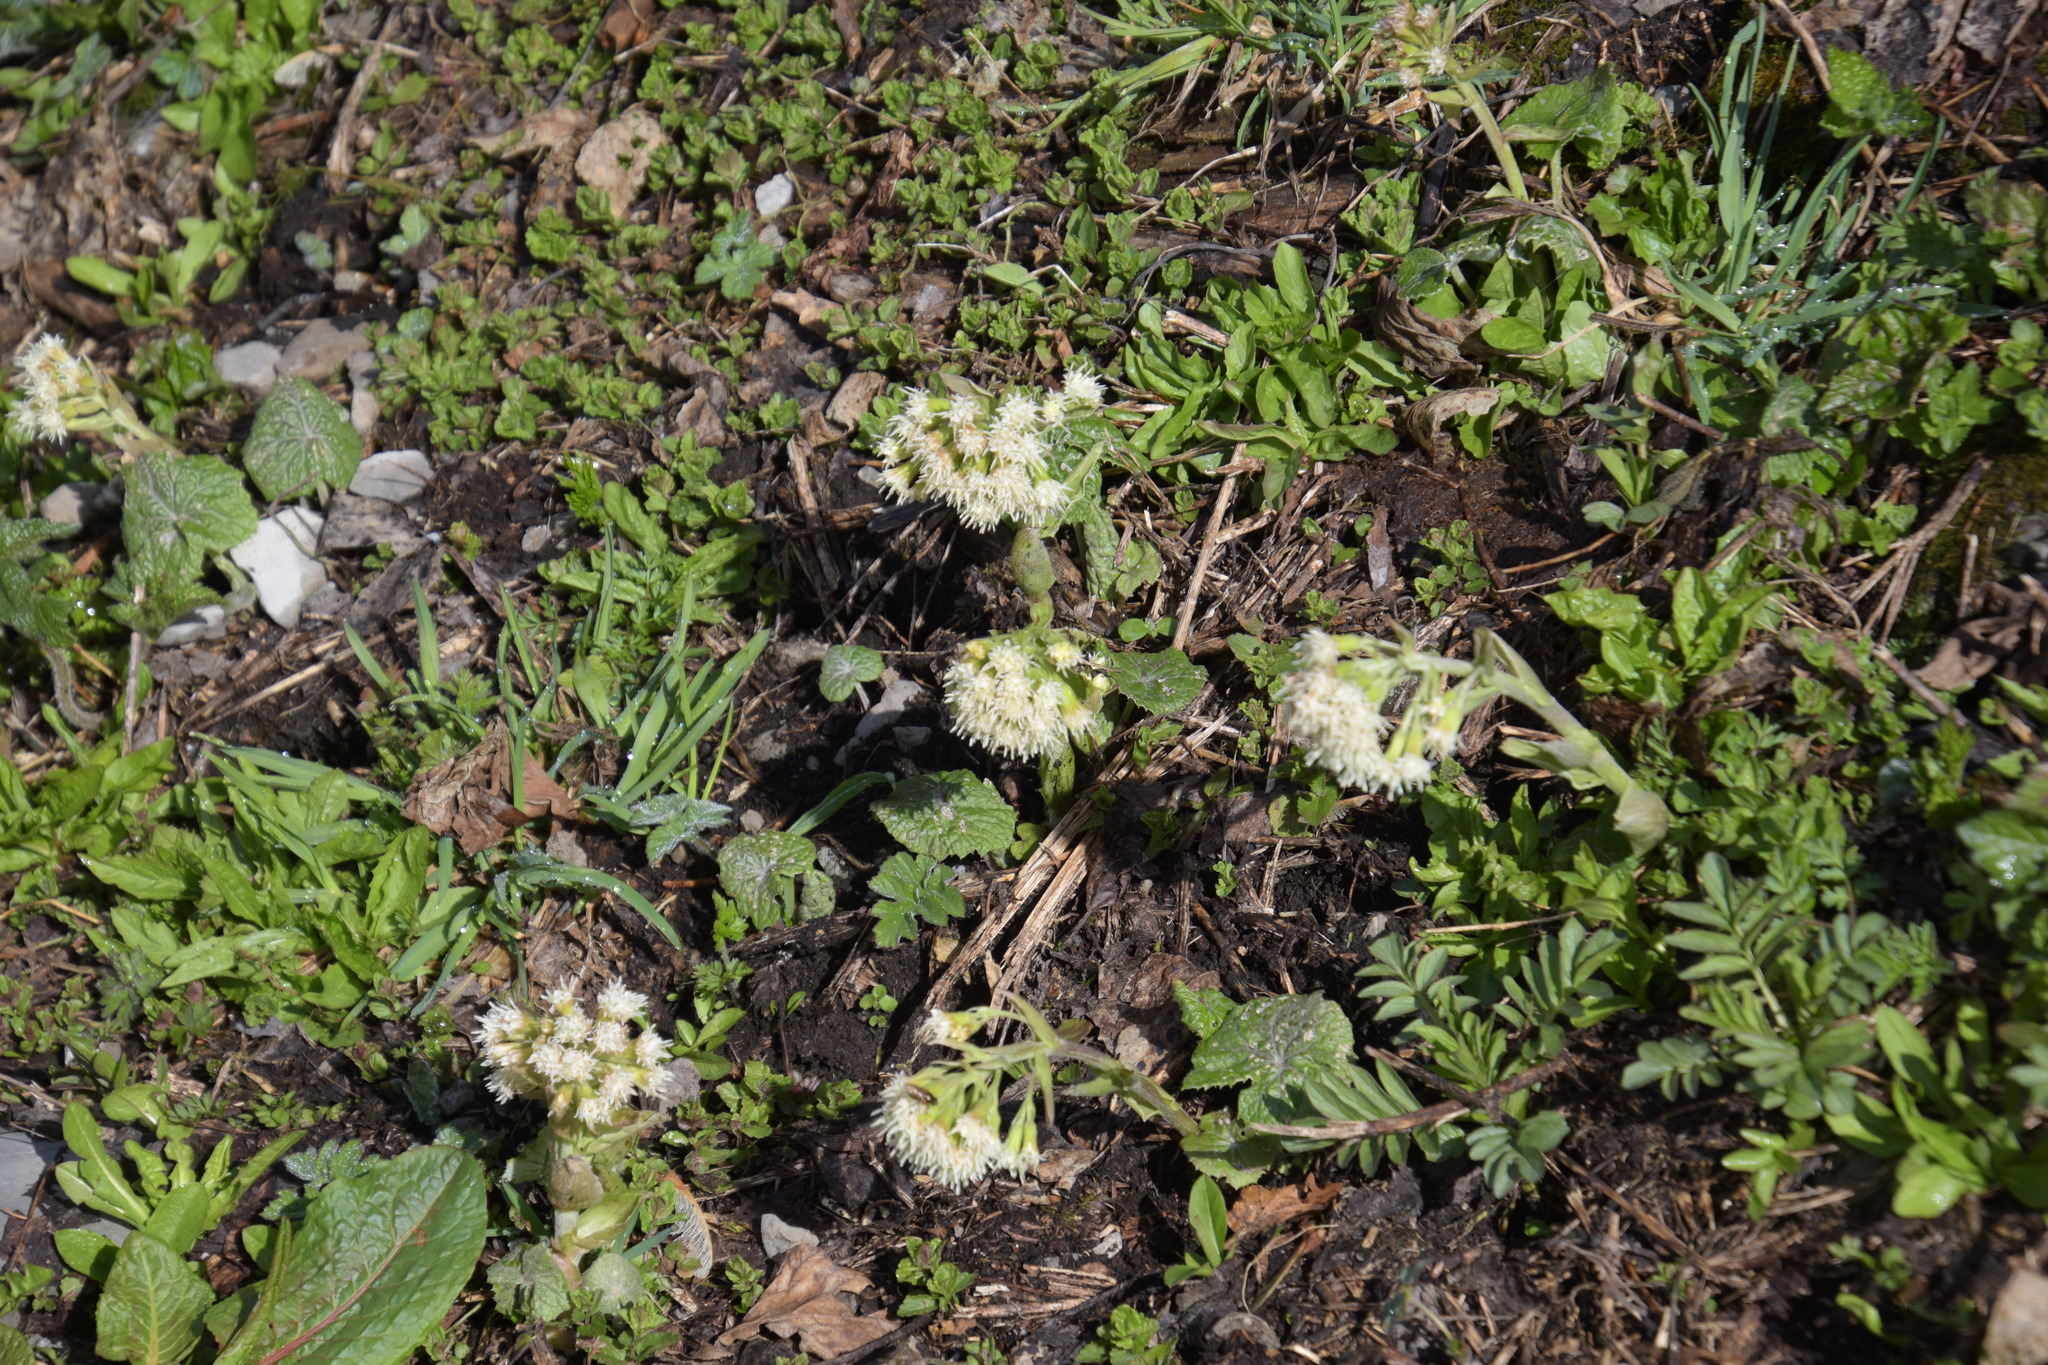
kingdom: Plantae
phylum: Tracheophyta
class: Magnoliopsida
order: Asterales
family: Asteraceae
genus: Petasites
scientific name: Petasites albus
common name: White butterbur
